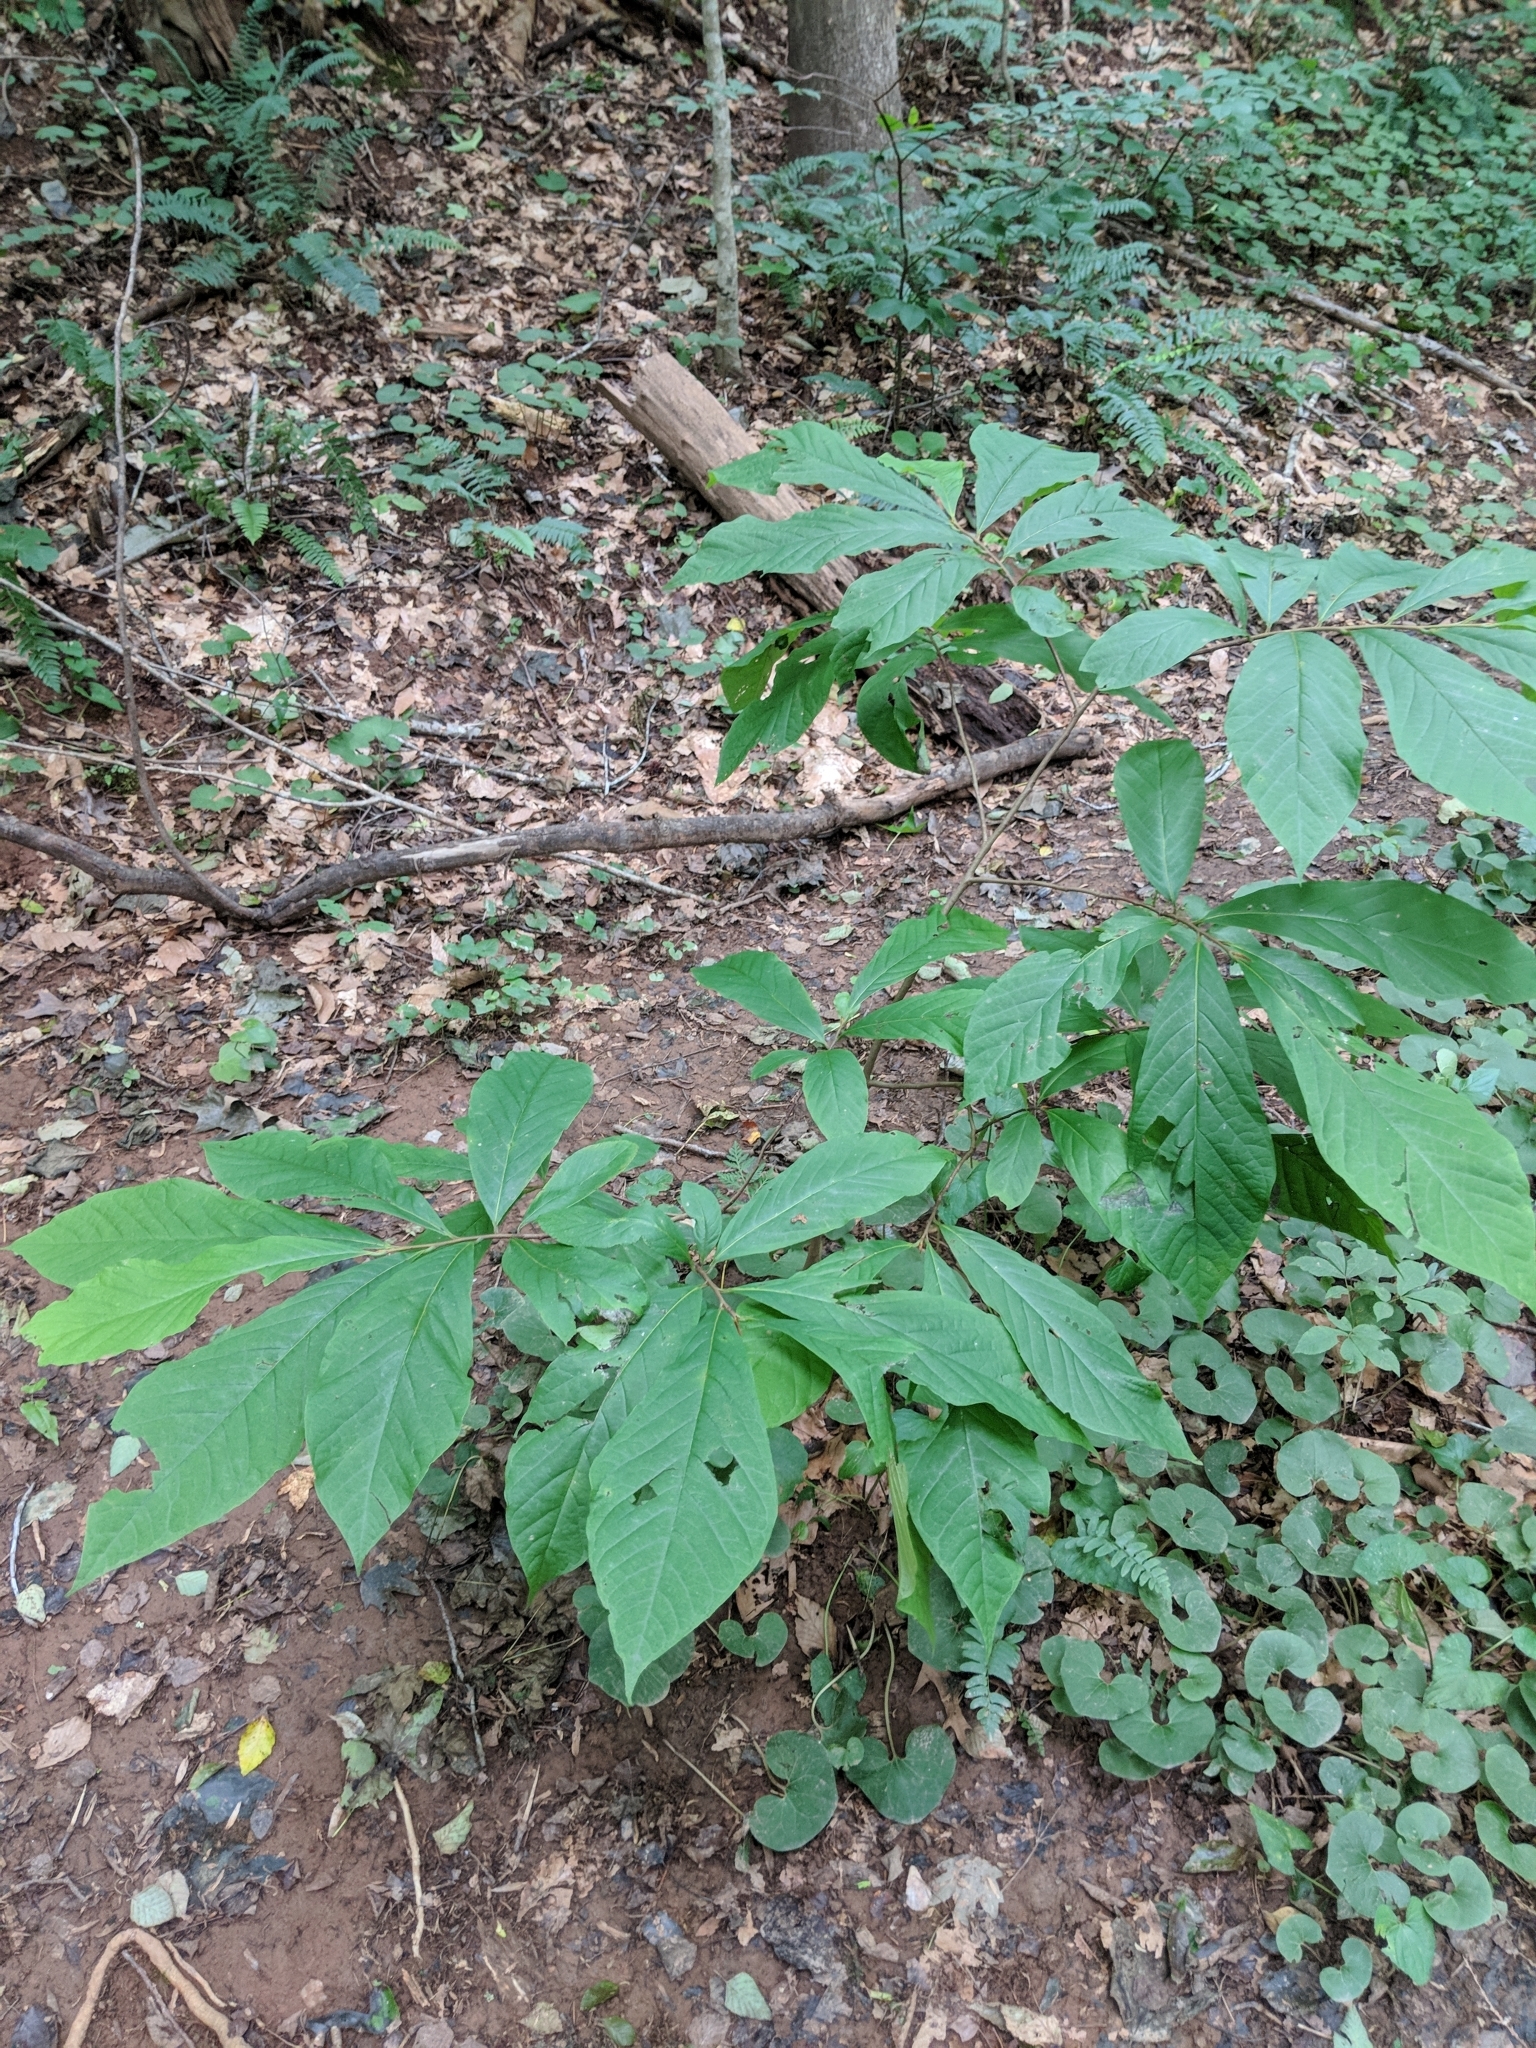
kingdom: Plantae
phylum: Tracheophyta
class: Magnoliopsida
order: Magnoliales
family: Annonaceae
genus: Asimina
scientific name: Asimina triloba
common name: Dog-banana
